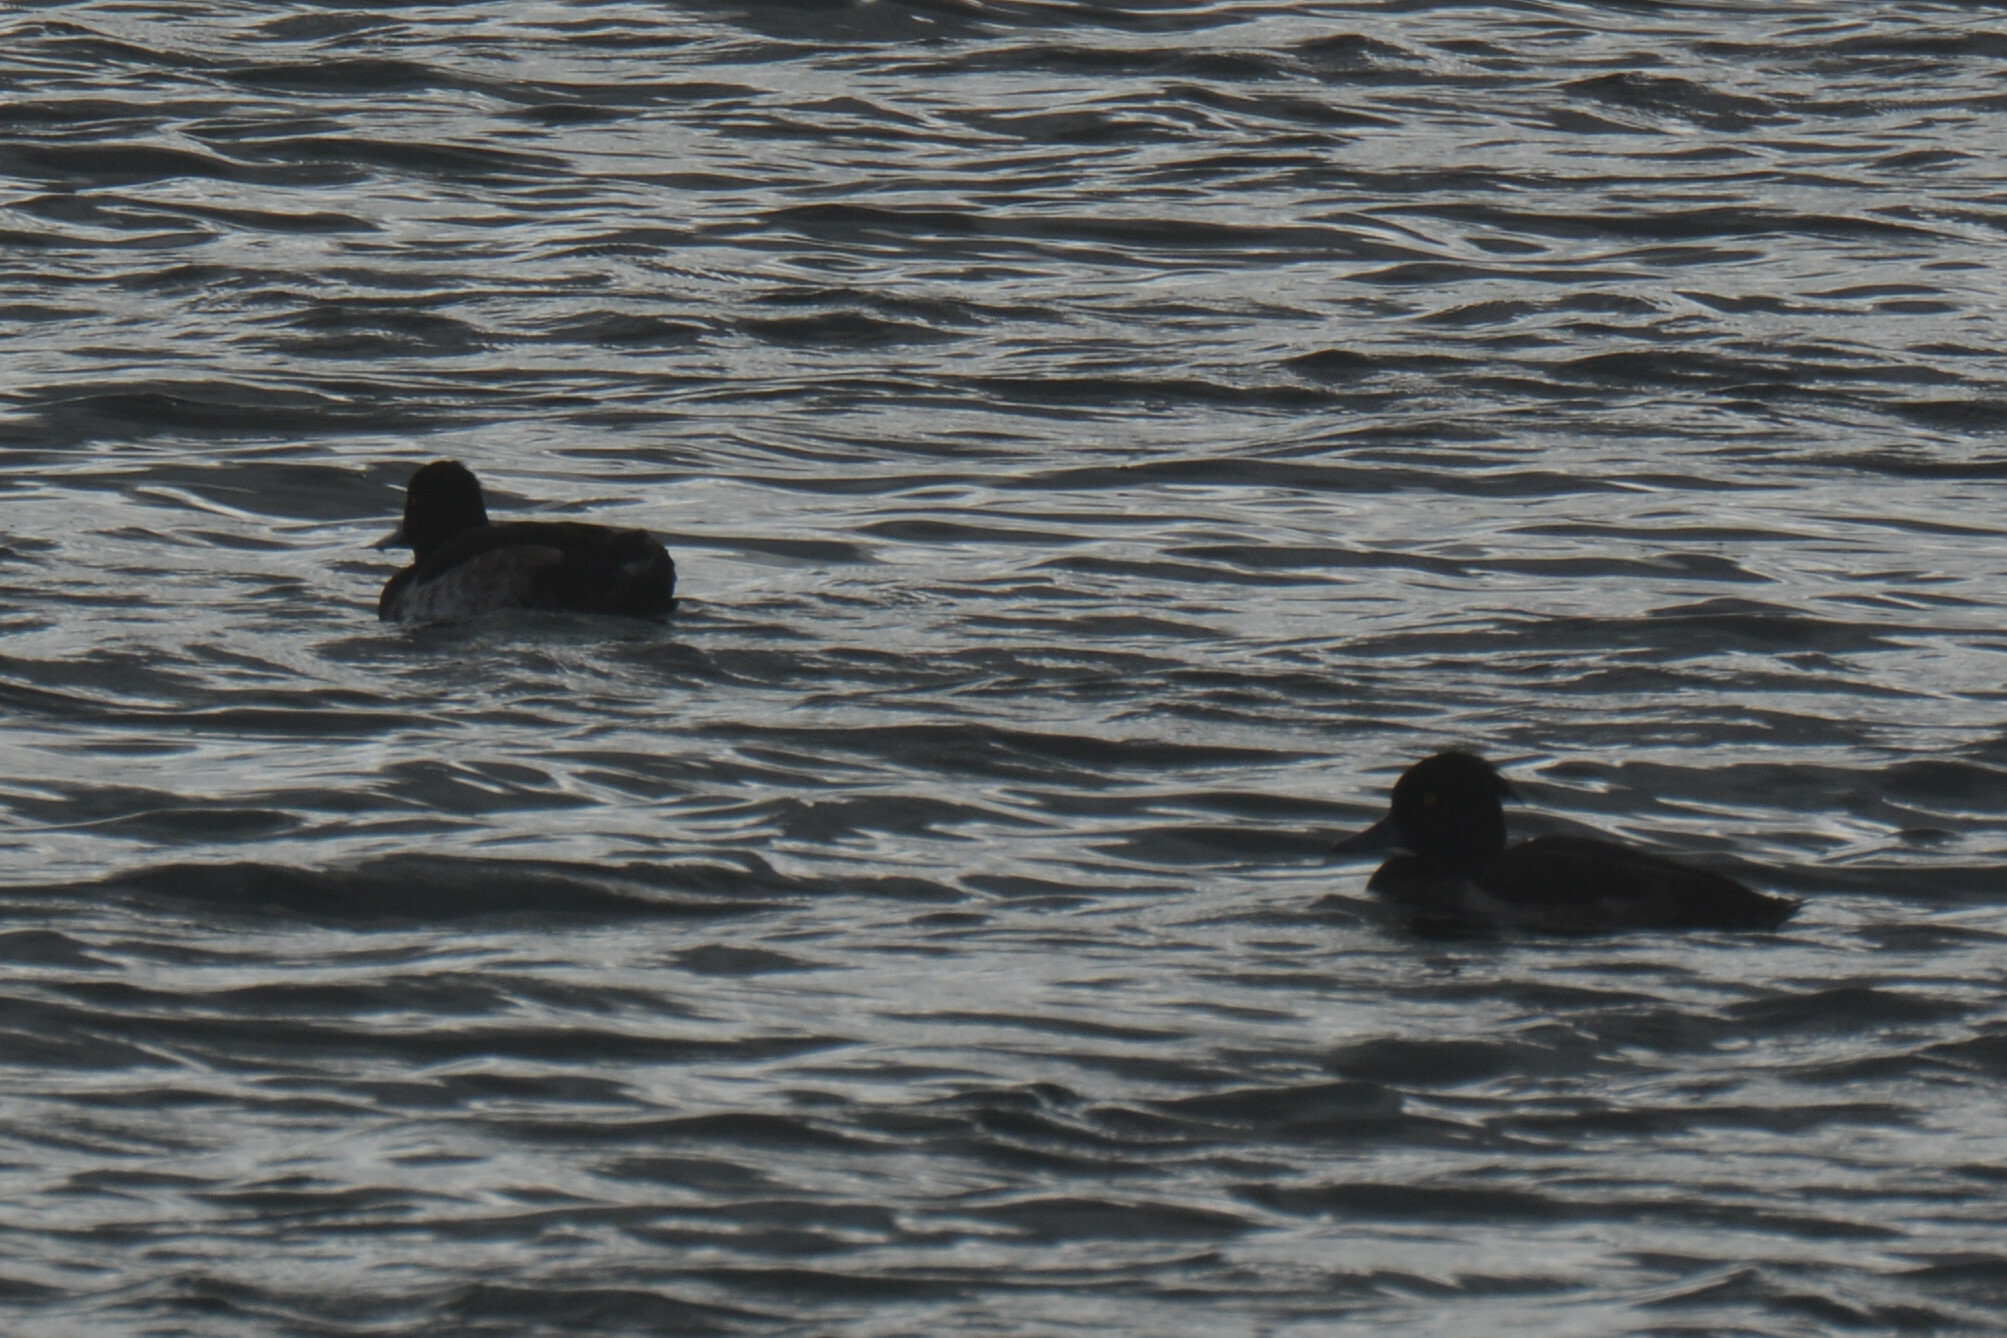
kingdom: Animalia
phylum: Chordata
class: Aves
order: Anseriformes
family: Anatidae
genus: Aythya
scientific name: Aythya fuligula
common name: Tufted duck
